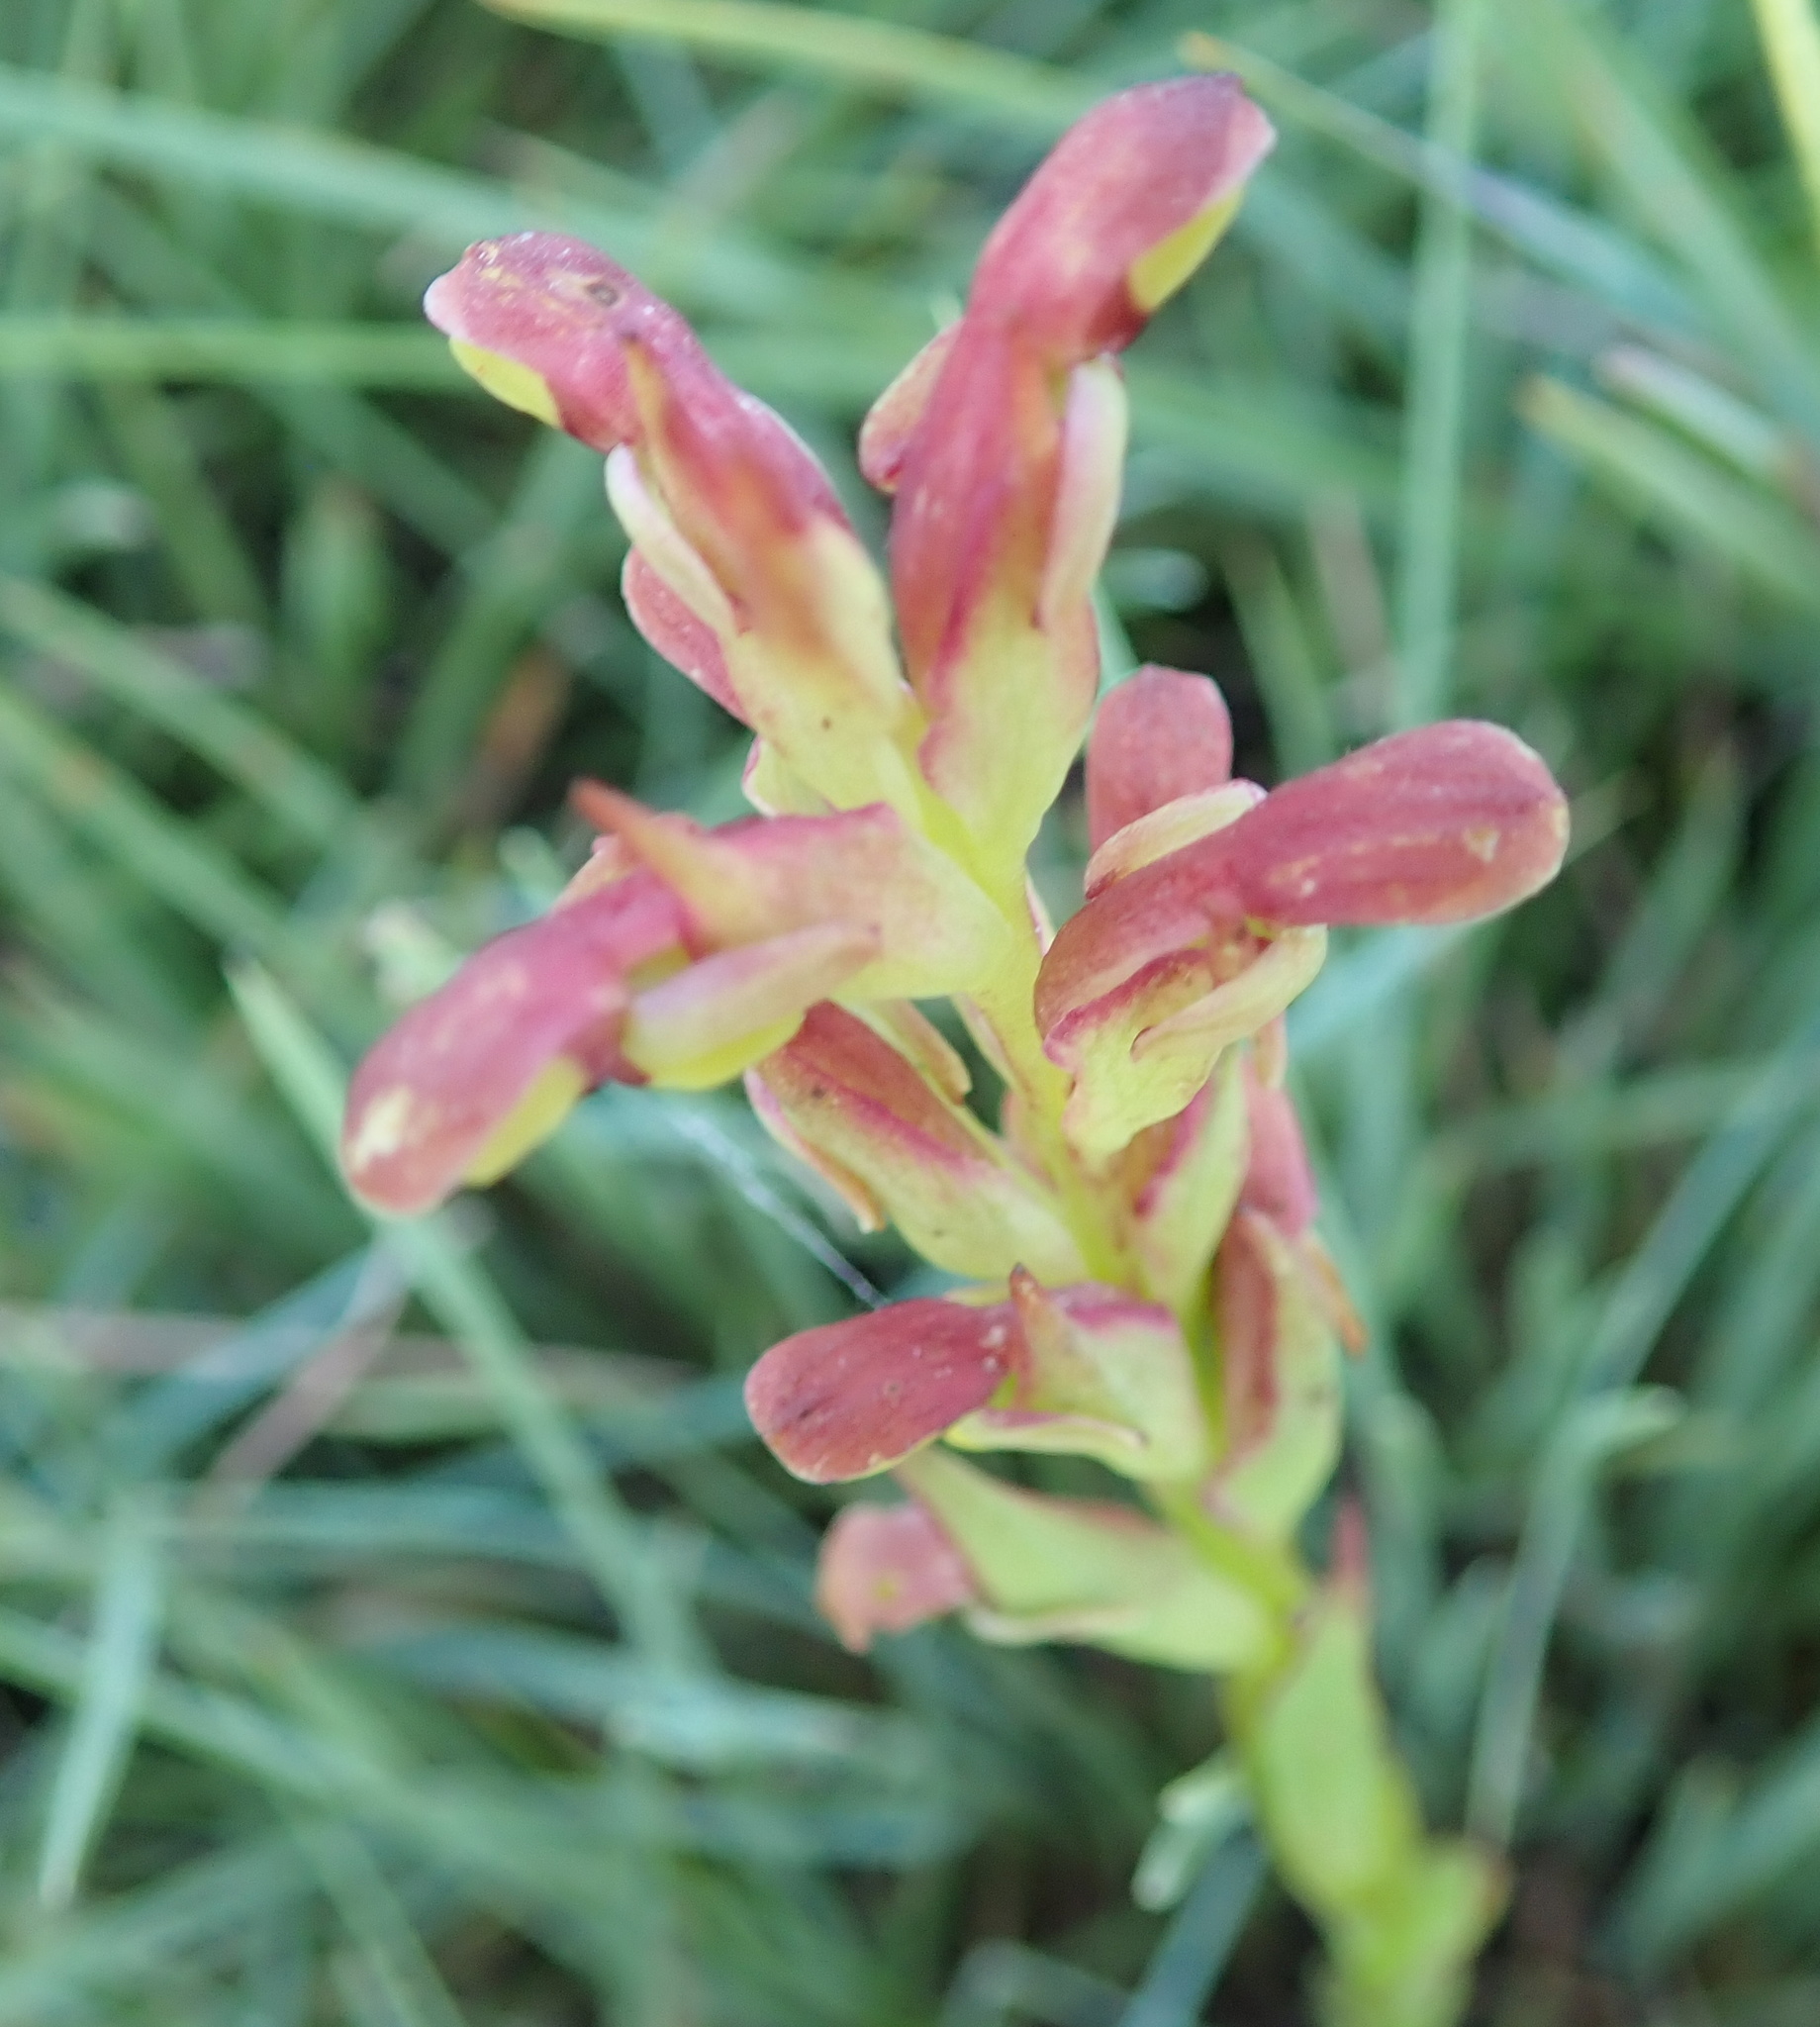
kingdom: Plantae
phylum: Tracheophyta
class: Liliopsida
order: Asparagales
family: Orchidaceae
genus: Disa
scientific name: Disa brevicornis
